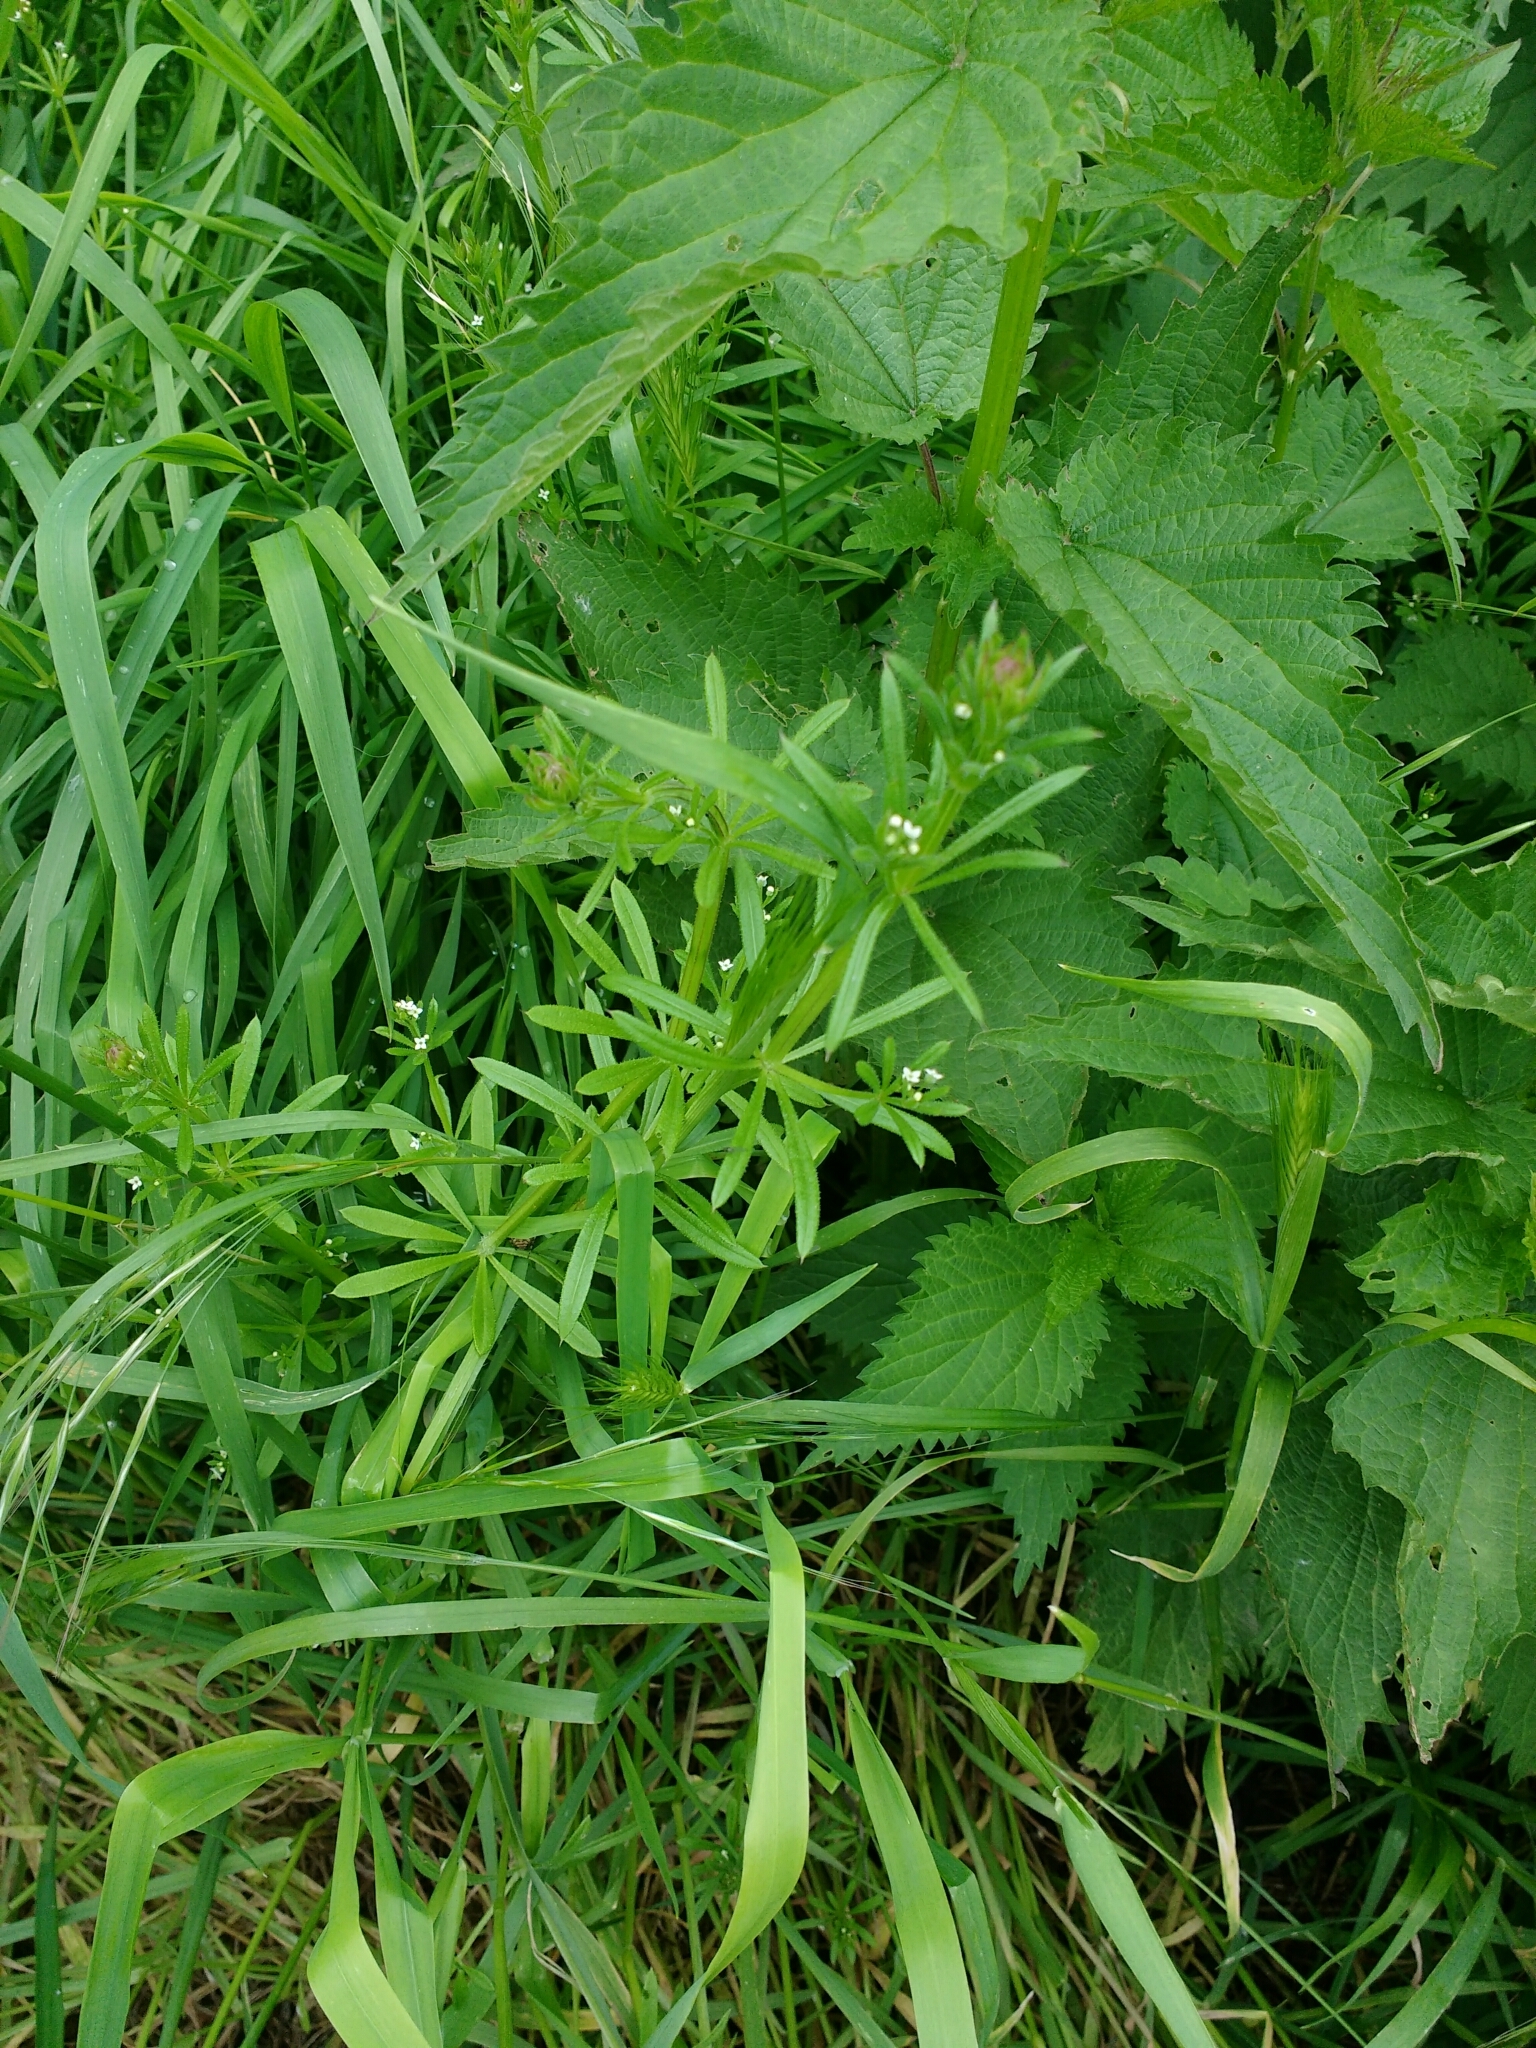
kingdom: Plantae
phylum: Tracheophyta
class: Magnoliopsida
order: Gentianales
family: Rubiaceae
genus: Galium
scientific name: Galium aparine
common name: Cleavers
